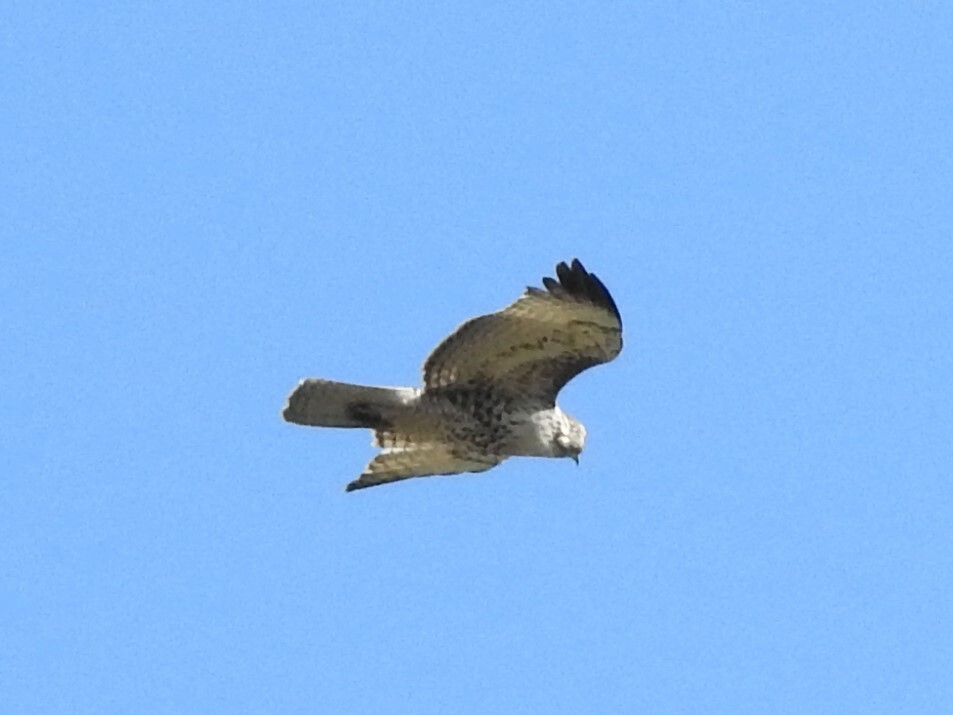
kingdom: Animalia
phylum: Chordata
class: Aves
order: Accipitriformes
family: Accipitridae
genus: Buteo
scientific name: Buteo jamaicensis
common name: Red-tailed hawk
